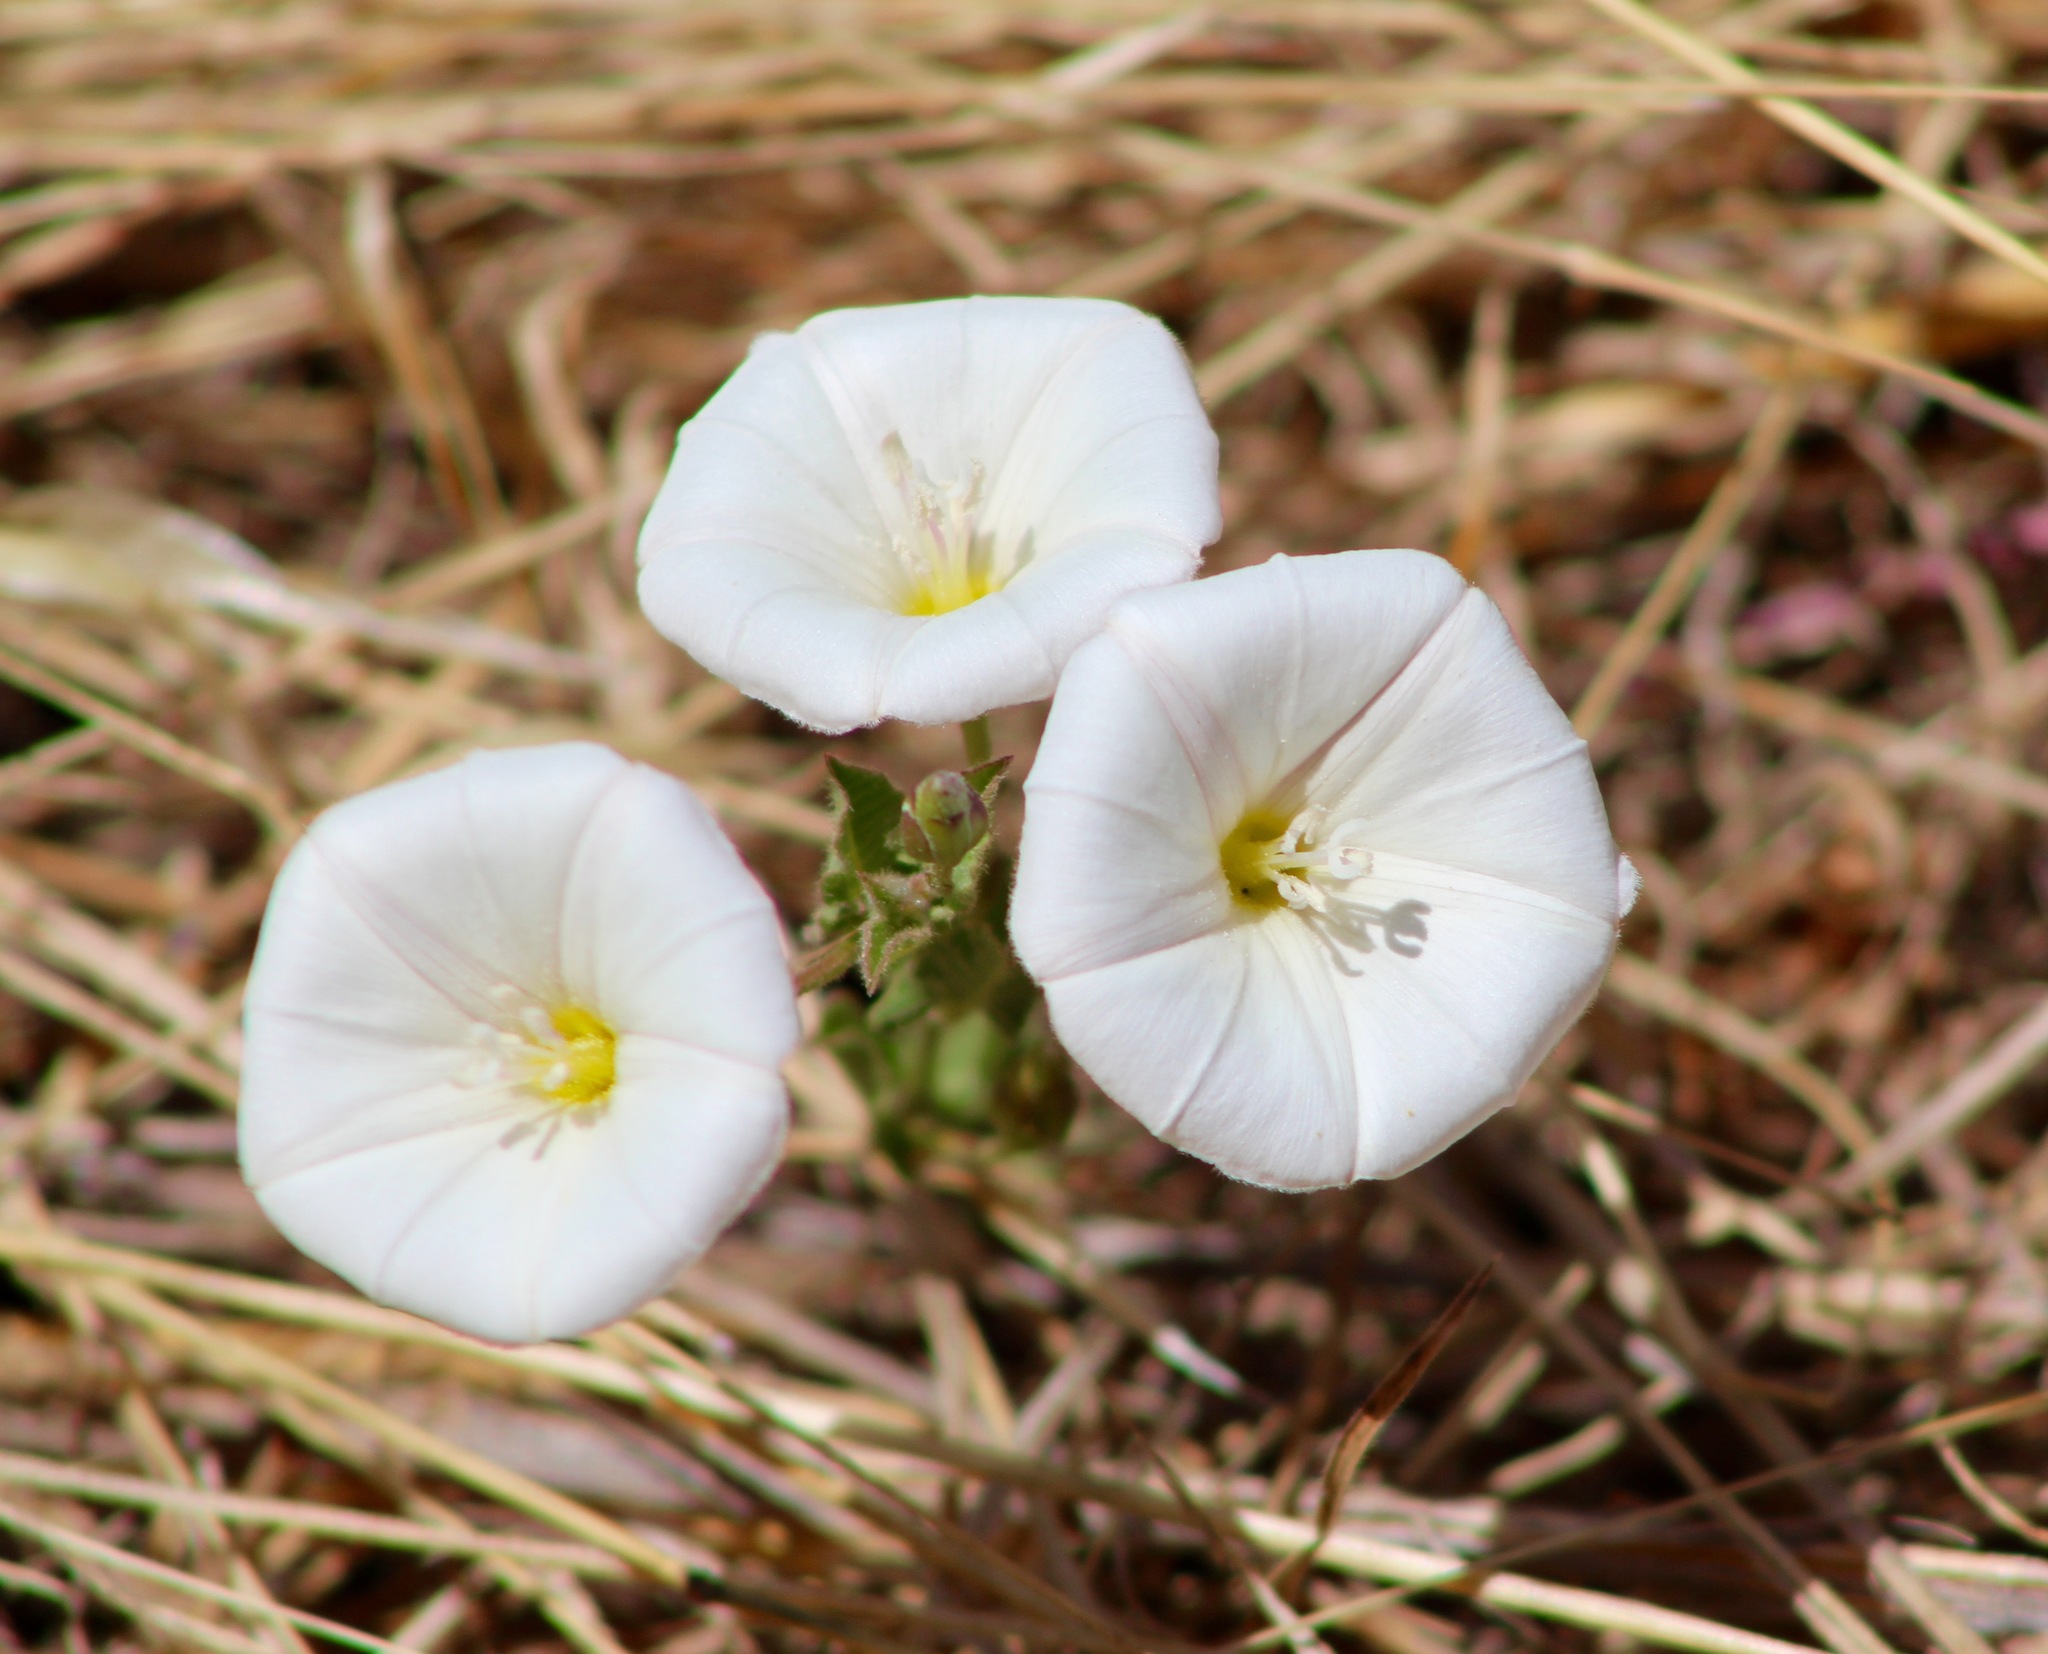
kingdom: Plantae
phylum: Tracheophyta
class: Magnoliopsida
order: Solanales
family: Convolvulaceae
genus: Convolvulus
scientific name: Convolvulus arvensis
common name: Field bindweed
